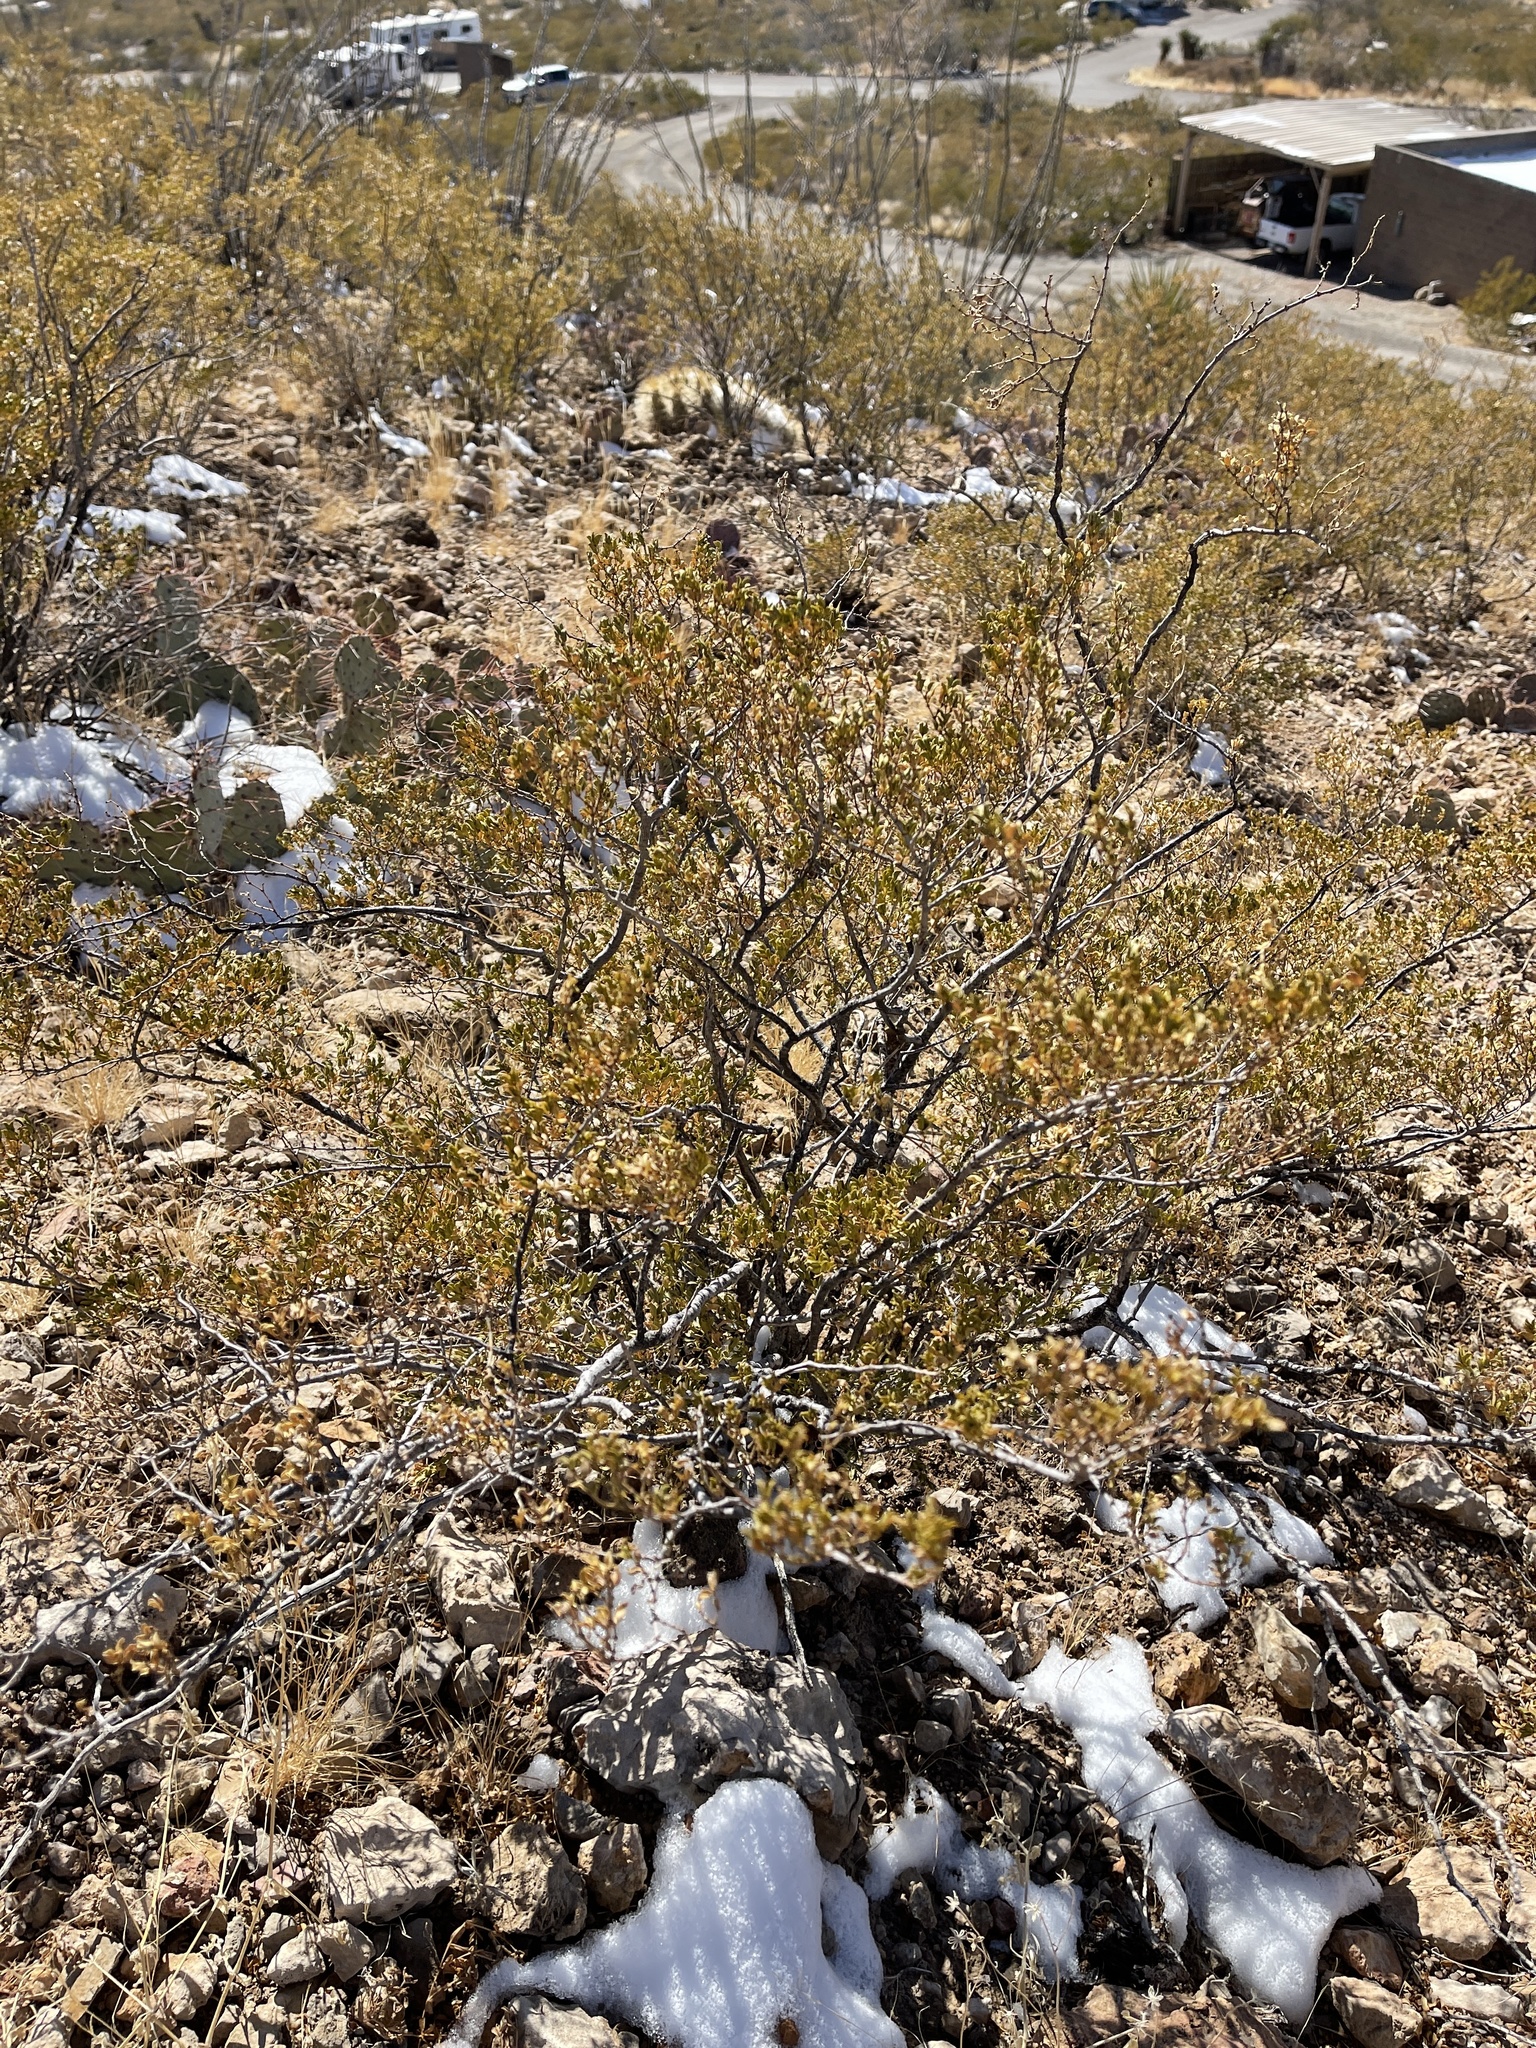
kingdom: Plantae
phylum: Tracheophyta
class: Magnoliopsida
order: Zygophyllales
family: Zygophyllaceae
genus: Larrea
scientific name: Larrea tridentata
